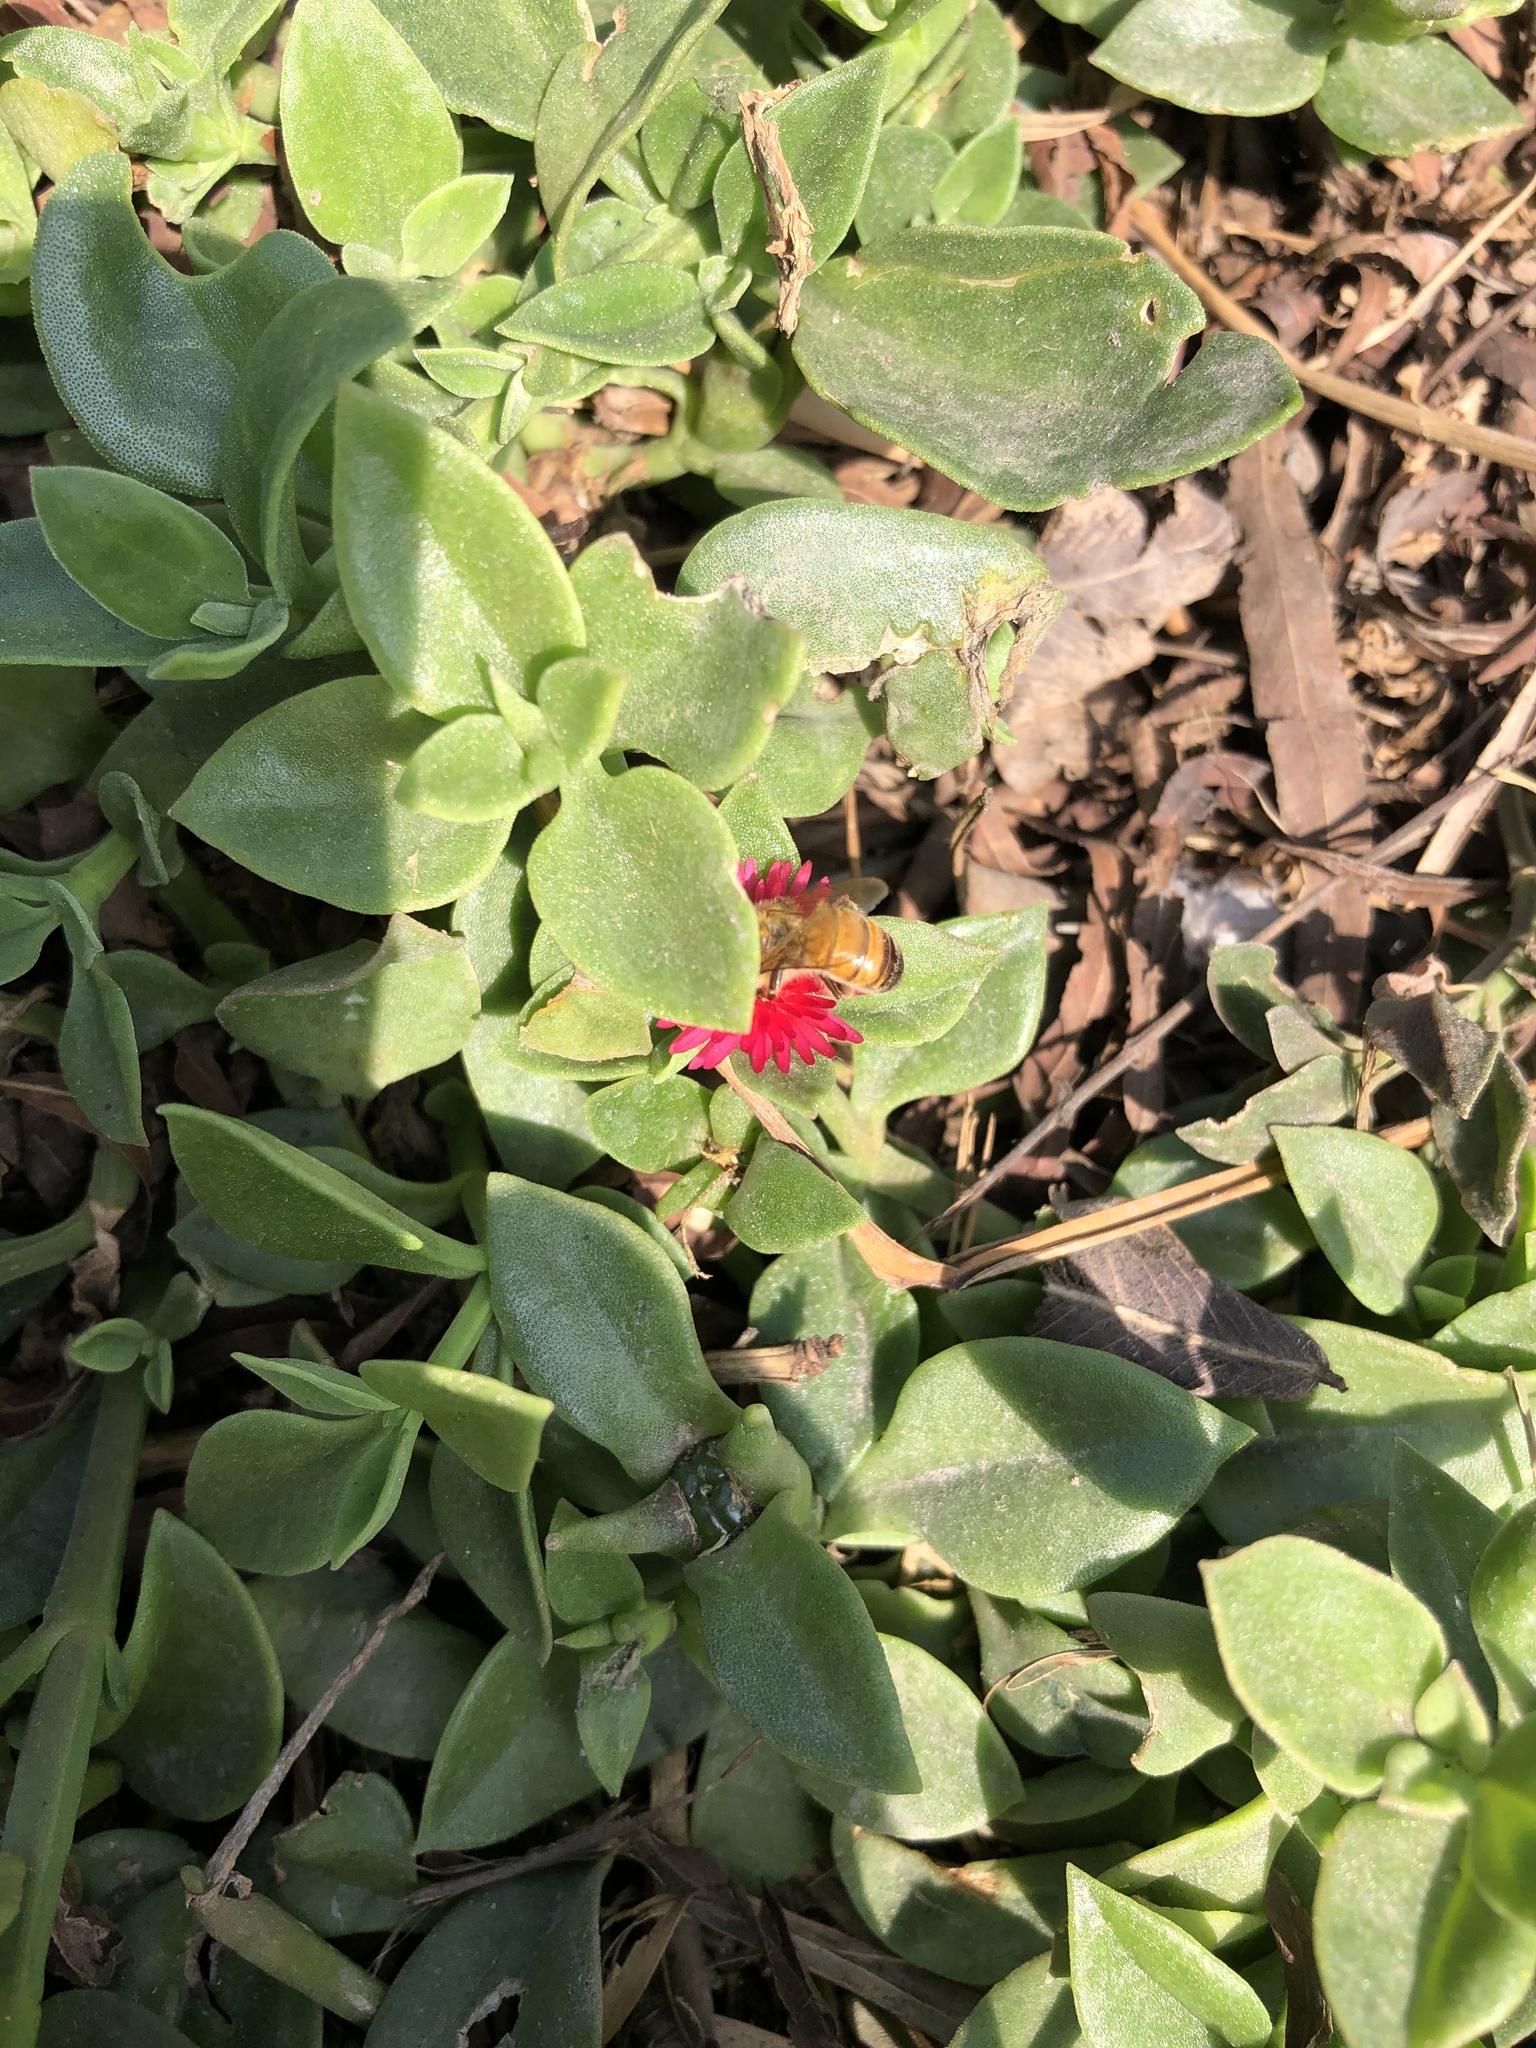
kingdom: Animalia
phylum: Arthropoda
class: Insecta
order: Hymenoptera
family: Apidae
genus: Apis
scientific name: Apis mellifera
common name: Honey bee
